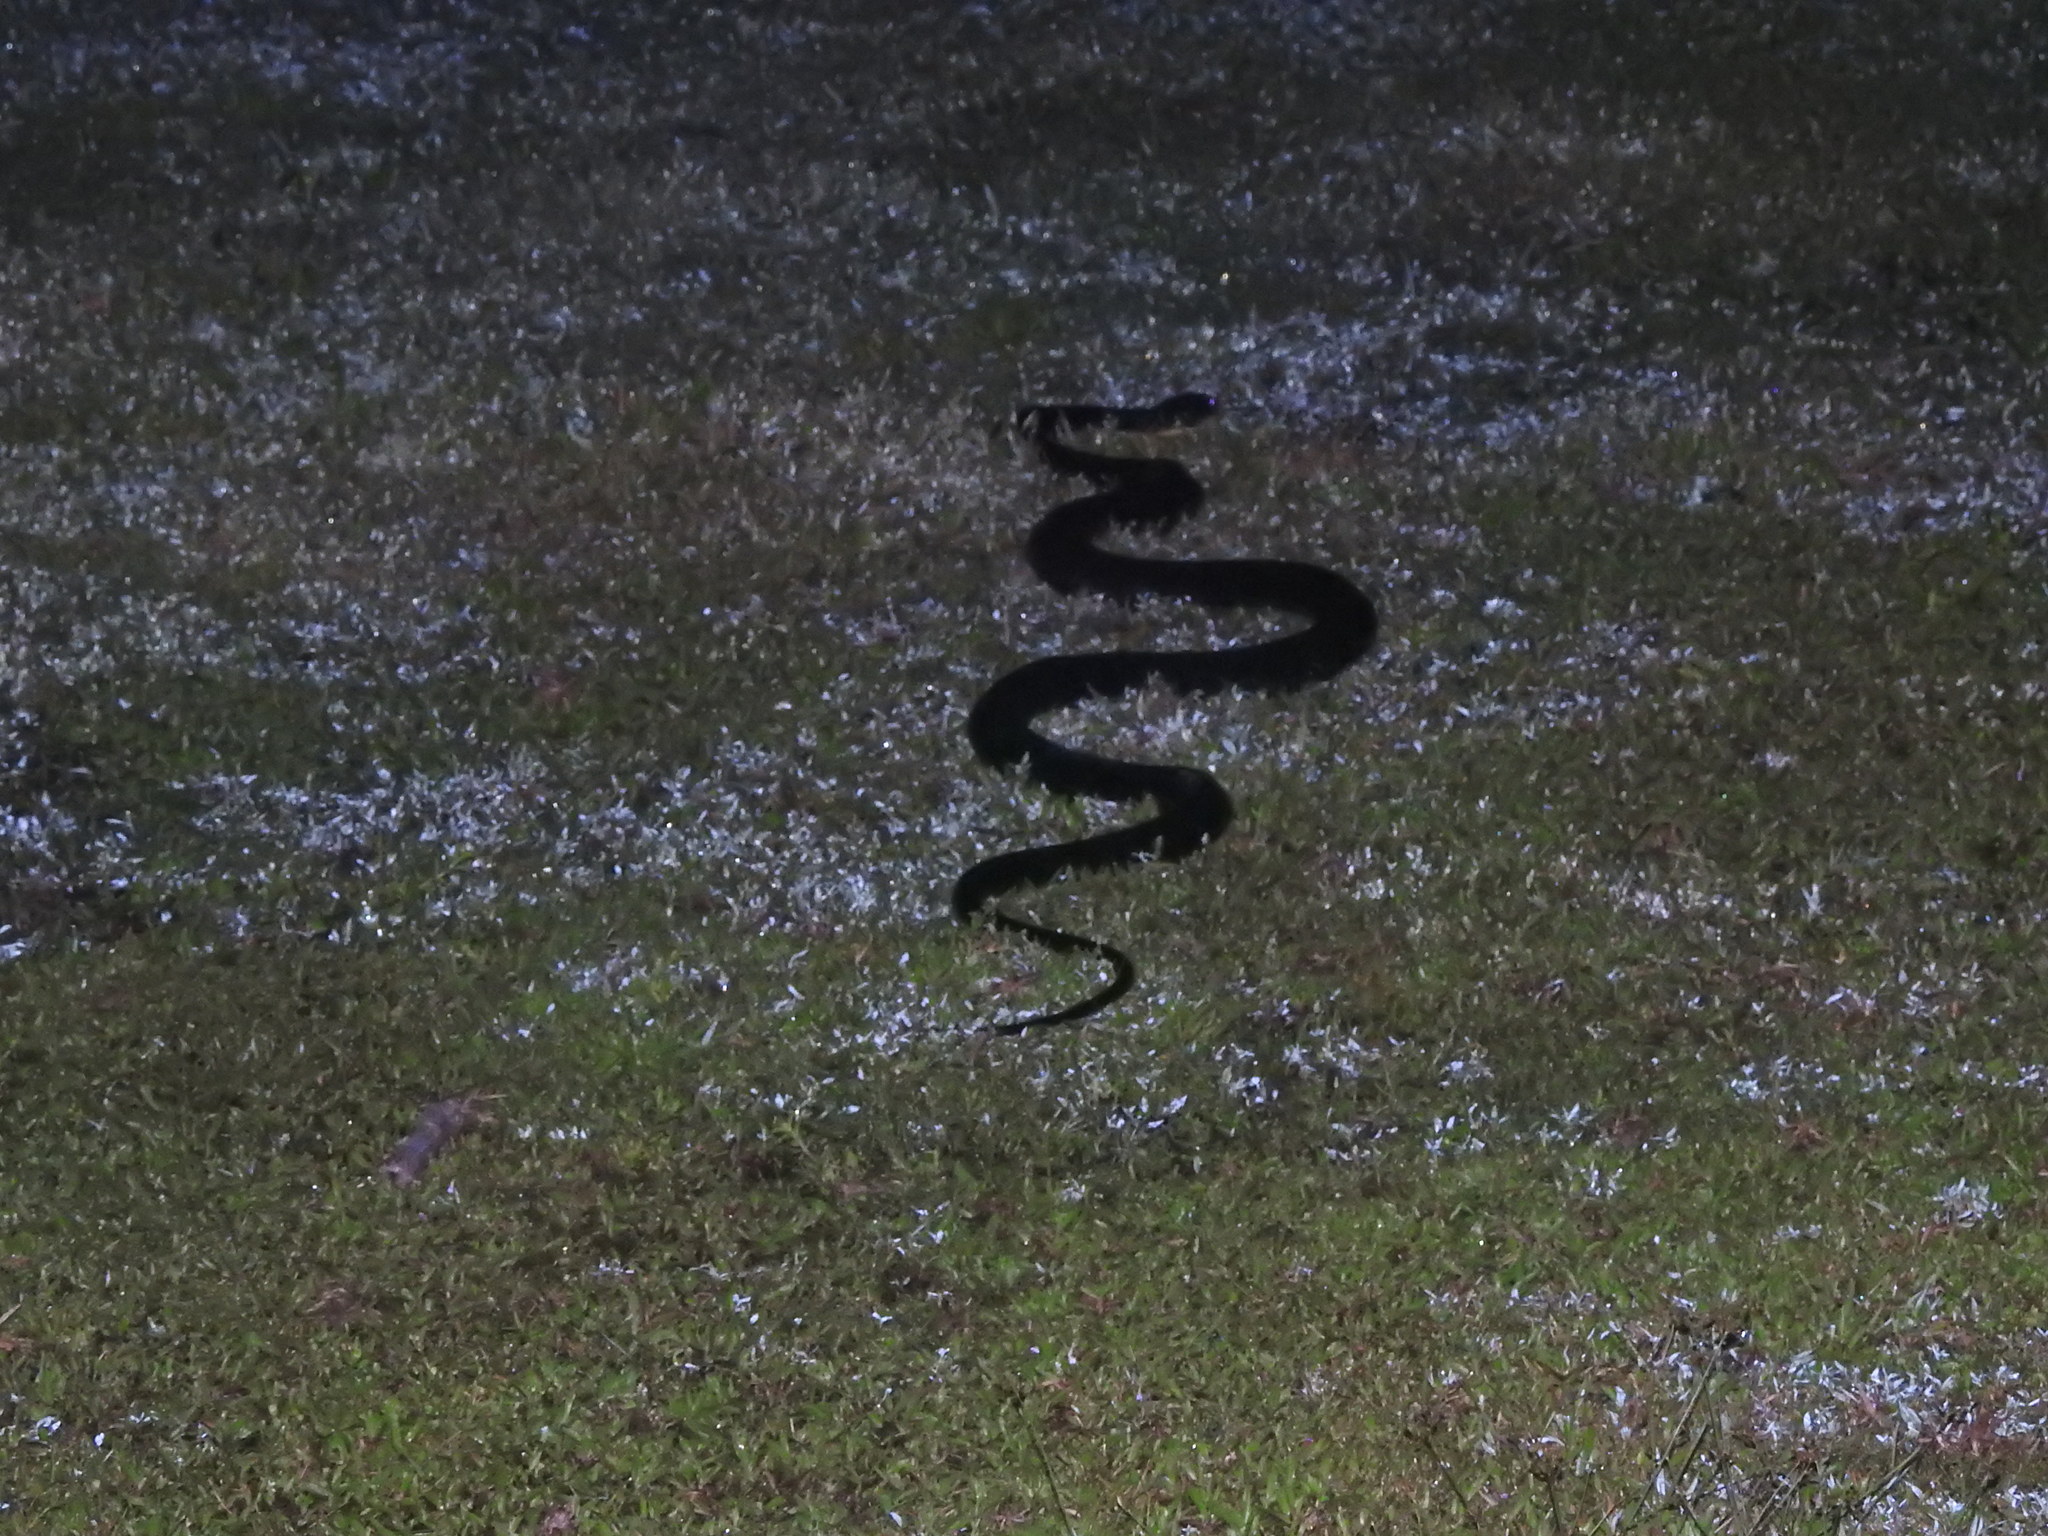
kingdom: Animalia
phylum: Chordata
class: Squamata
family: Elapidae
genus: Ophiophagus
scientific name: Ophiophagus hannah
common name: Hamadryad
